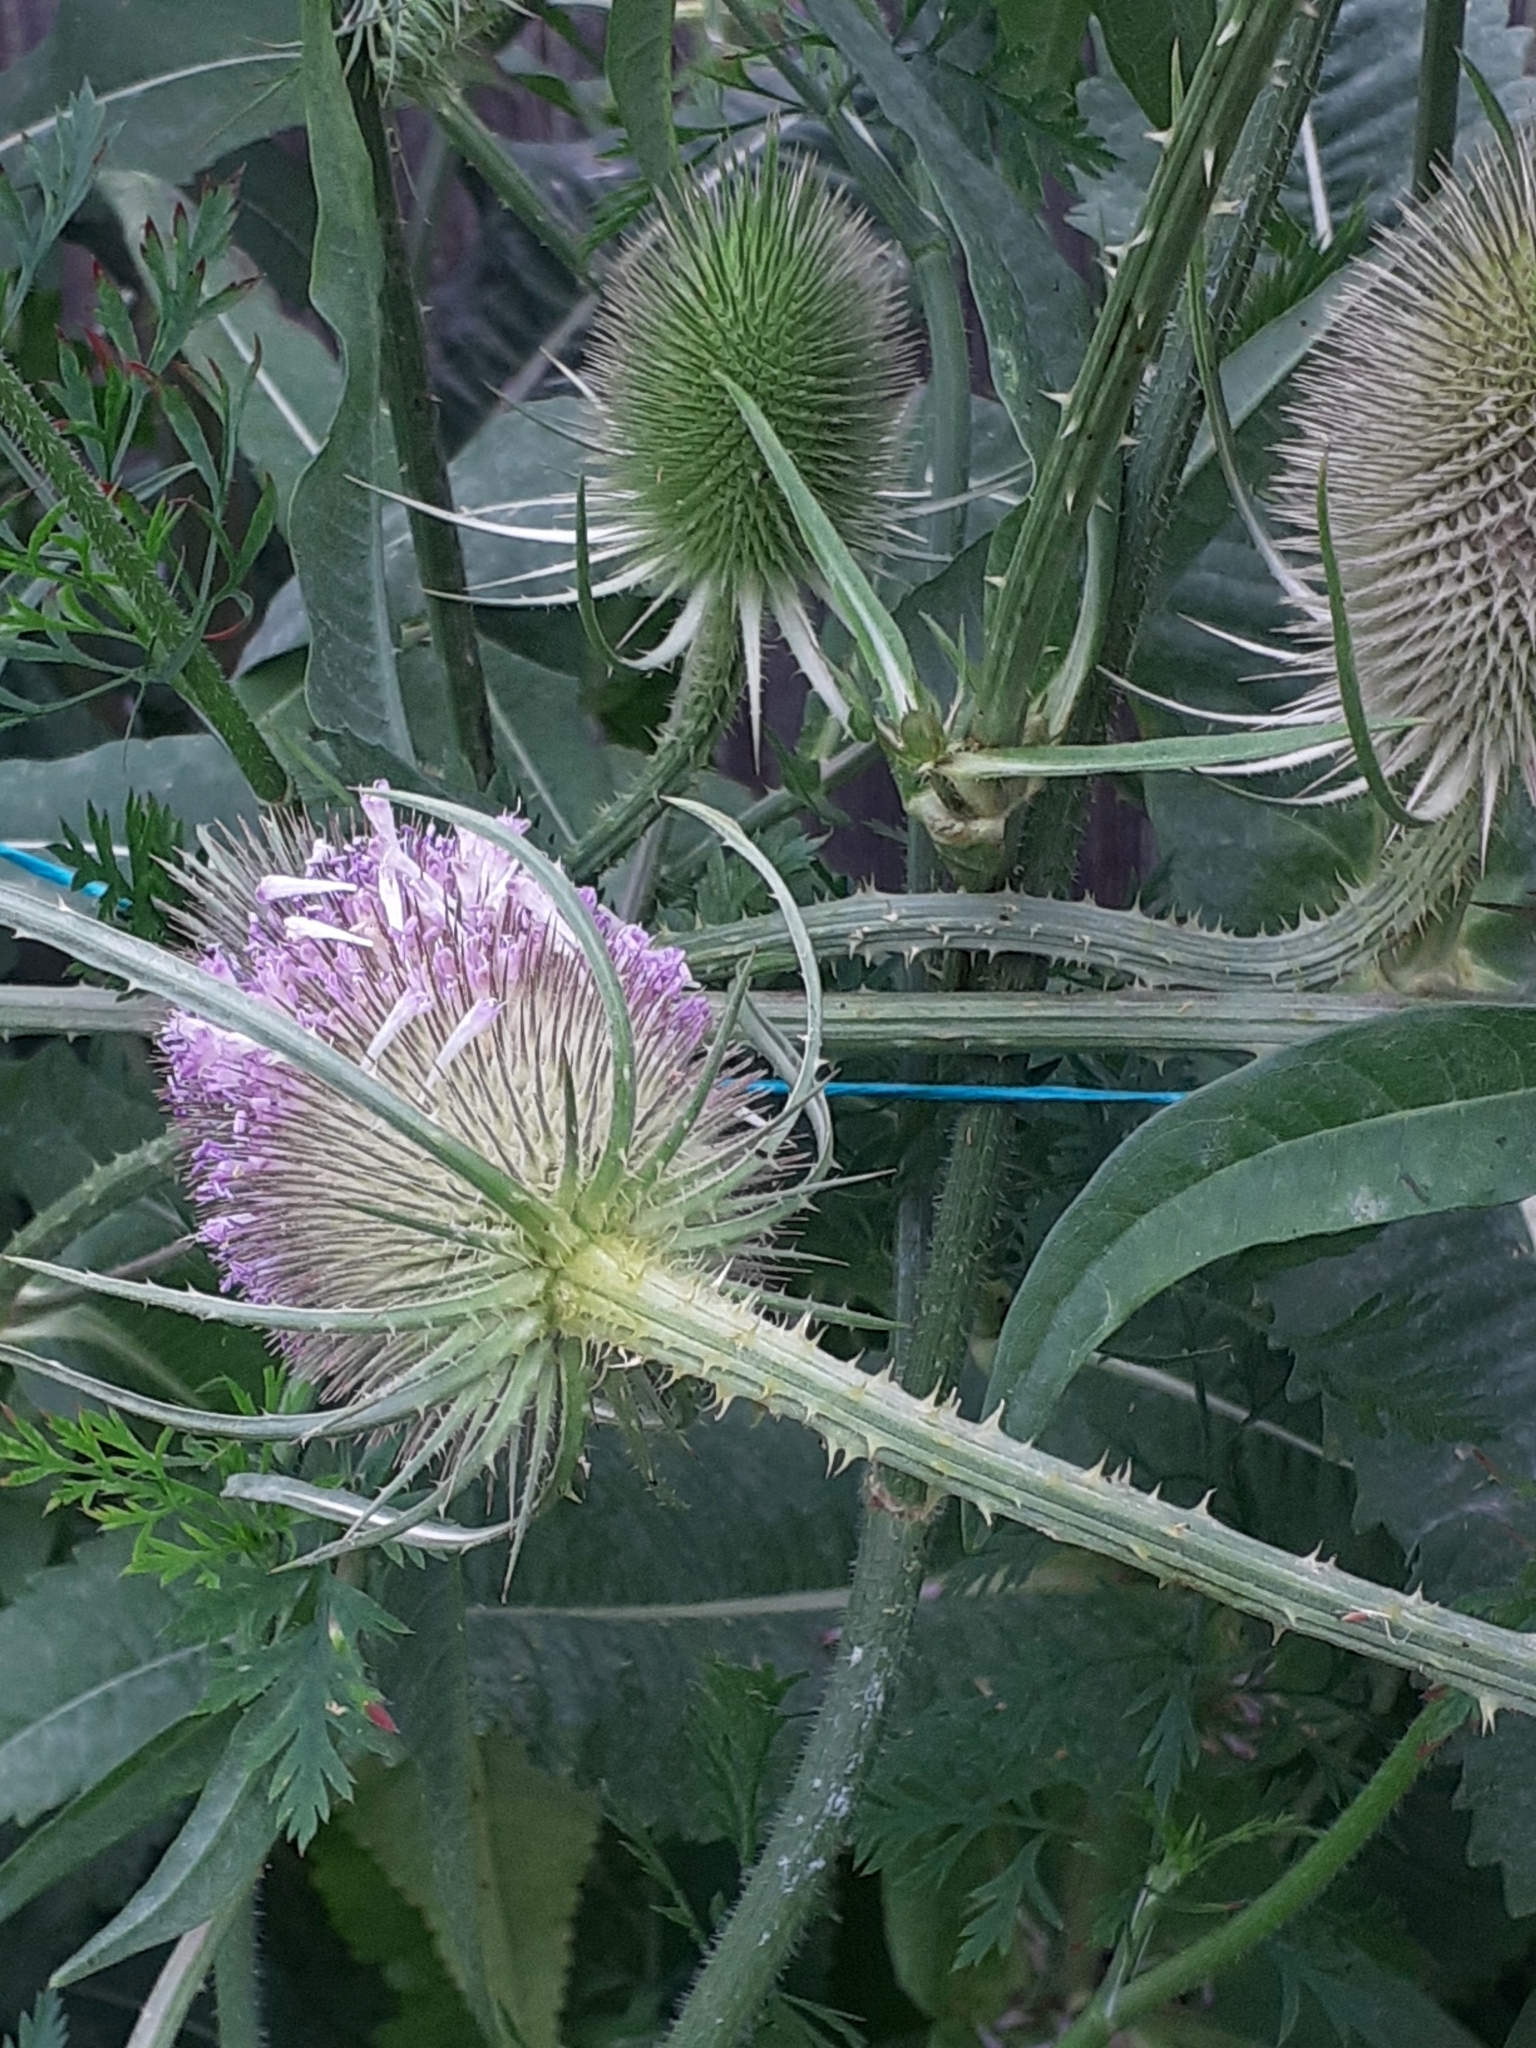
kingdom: Plantae
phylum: Tracheophyta
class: Magnoliopsida
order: Dipsacales
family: Caprifoliaceae
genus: Dipsacus
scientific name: Dipsacus fullonum
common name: Teasel
